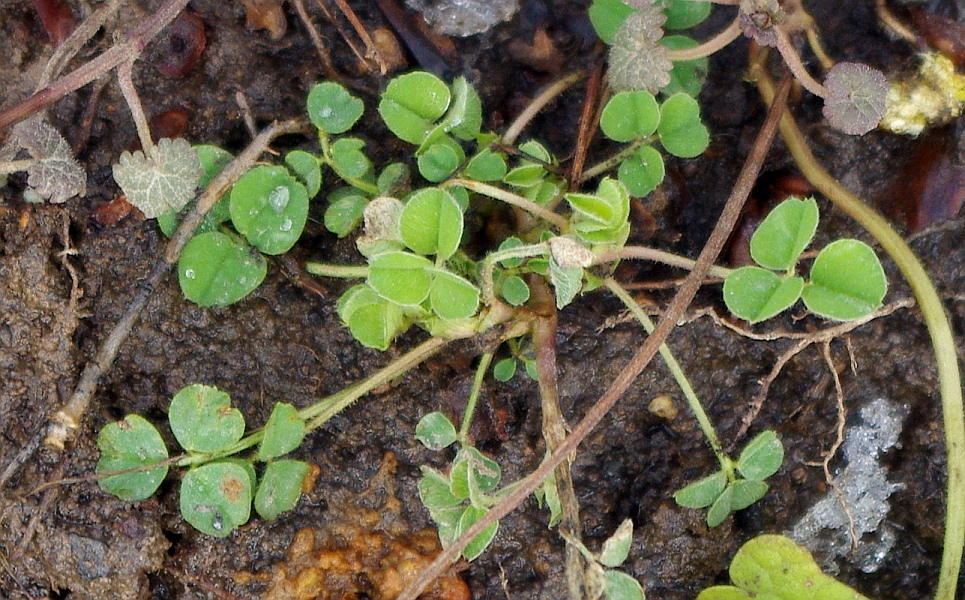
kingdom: Plantae
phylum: Tracheophyta
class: Magnoliopsida
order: Fabales
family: Fabaceae
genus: Medicago
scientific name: Medicago lupulina
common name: Black medick
